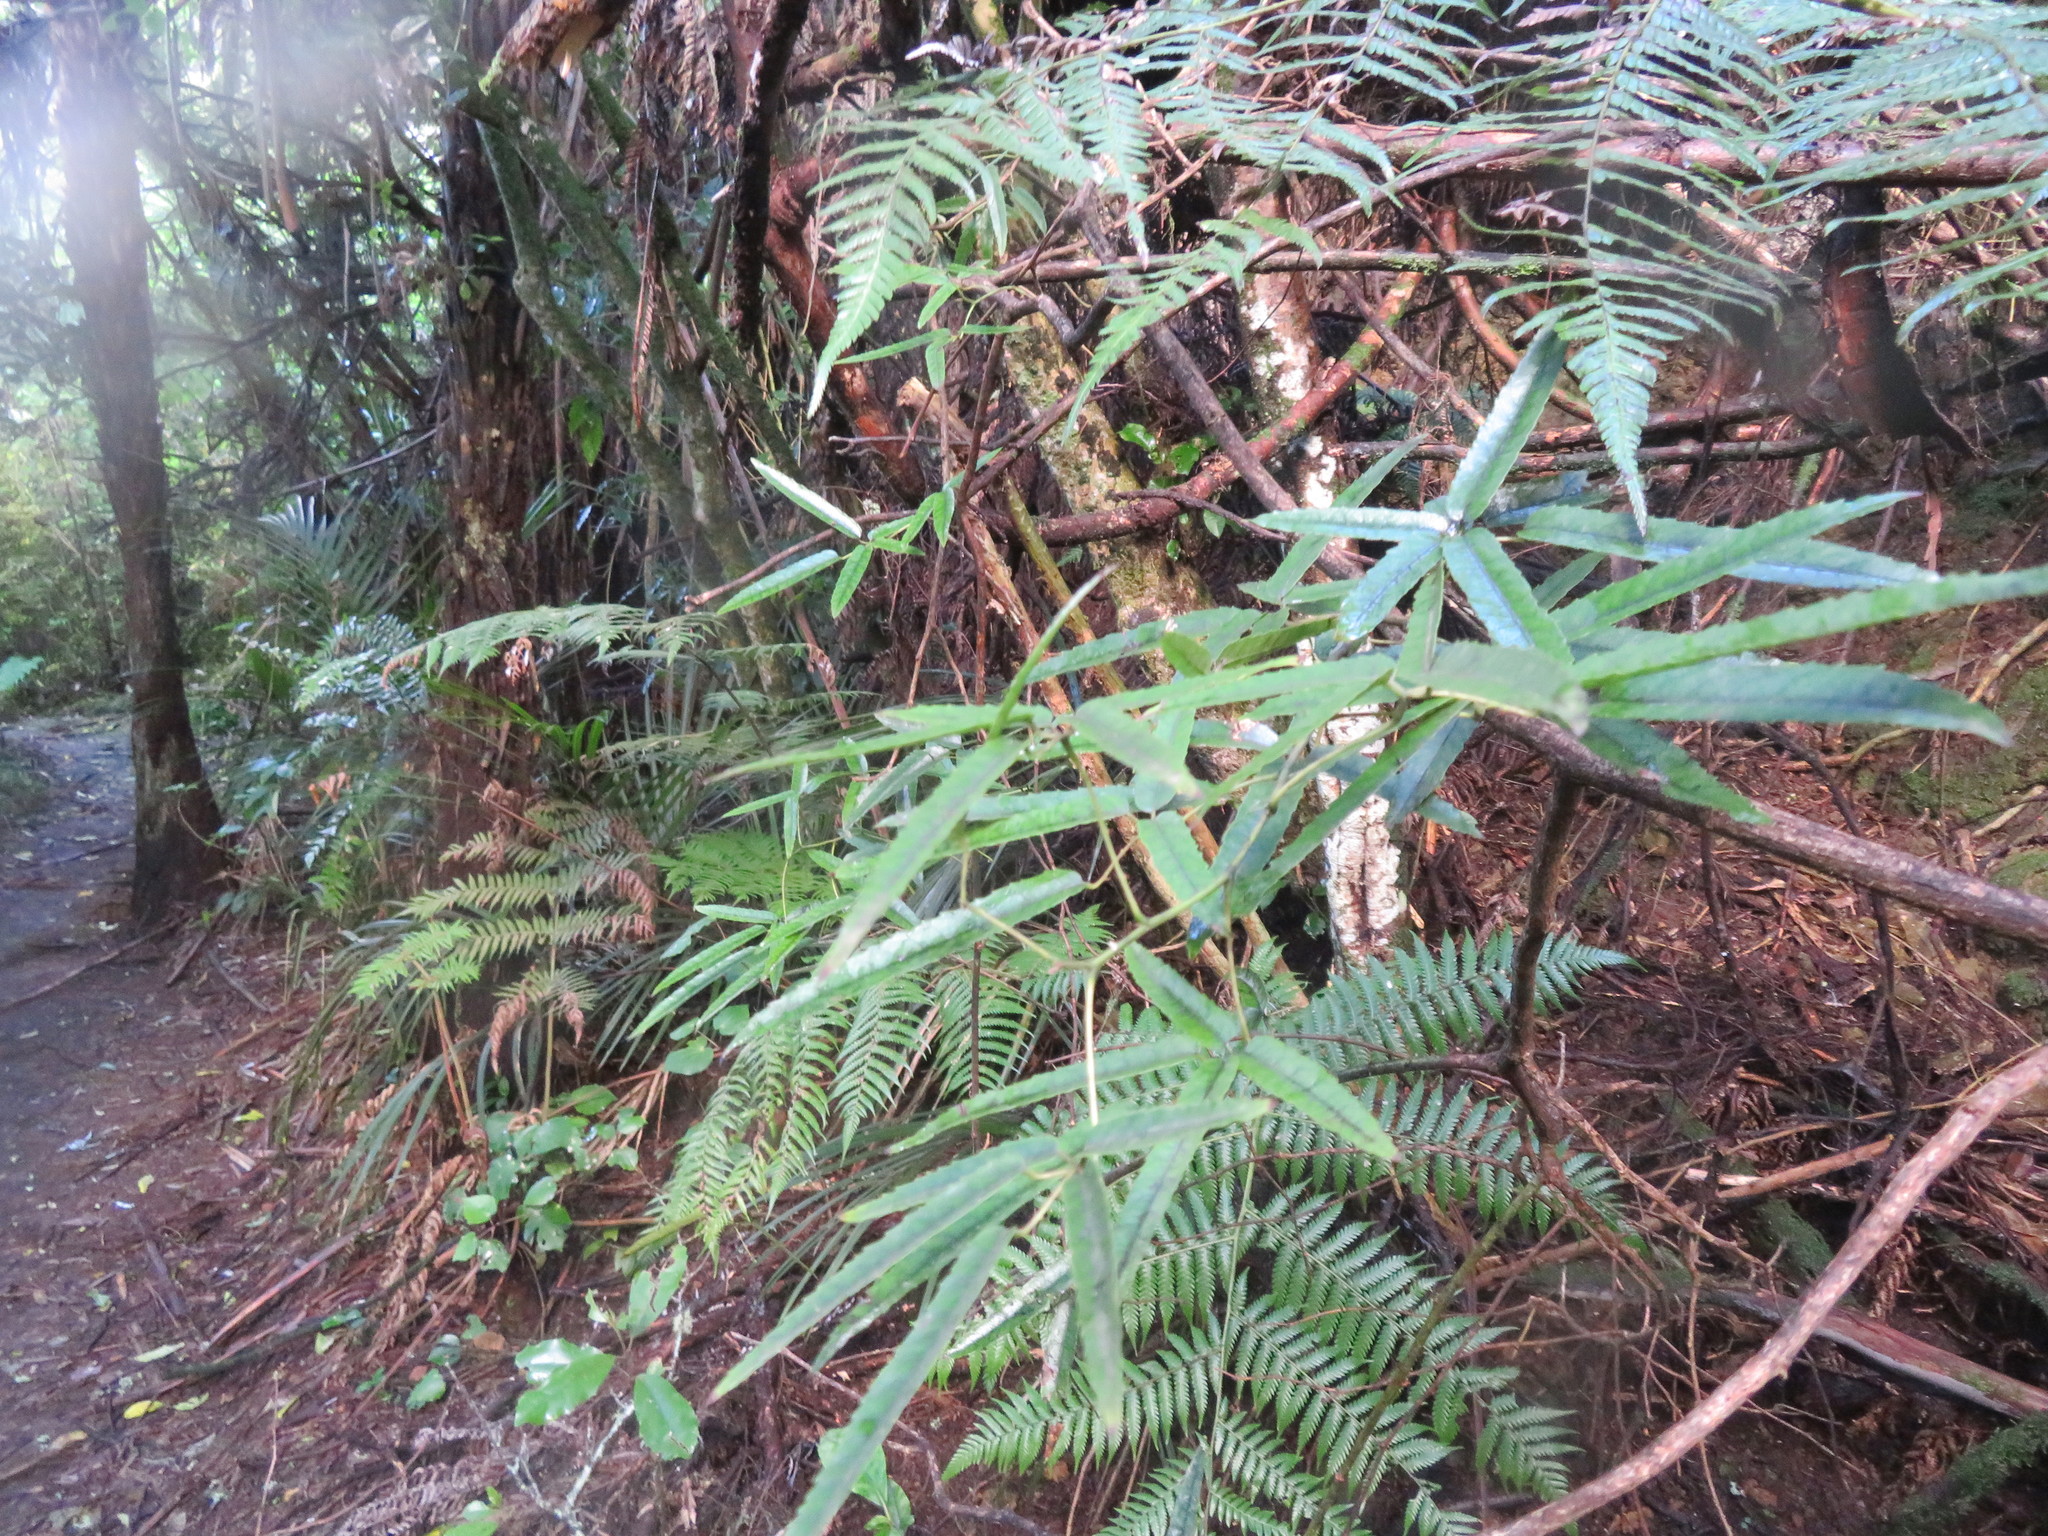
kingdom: Plantae
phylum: Tracheophyta
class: Magnoliopsida
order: Rosales
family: Rosaceae
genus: Rubus
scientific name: Rubus cissoides
